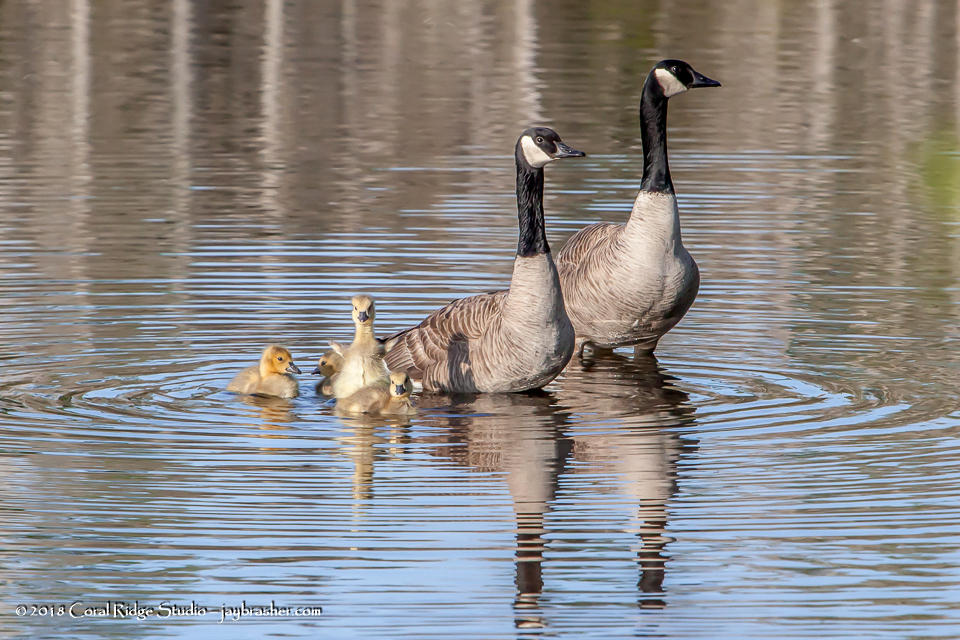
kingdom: Animalia
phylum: Chordata
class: Aves
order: Anseriformes
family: Anatidae
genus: Branta
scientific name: Branta canadensis
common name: Canada goose
